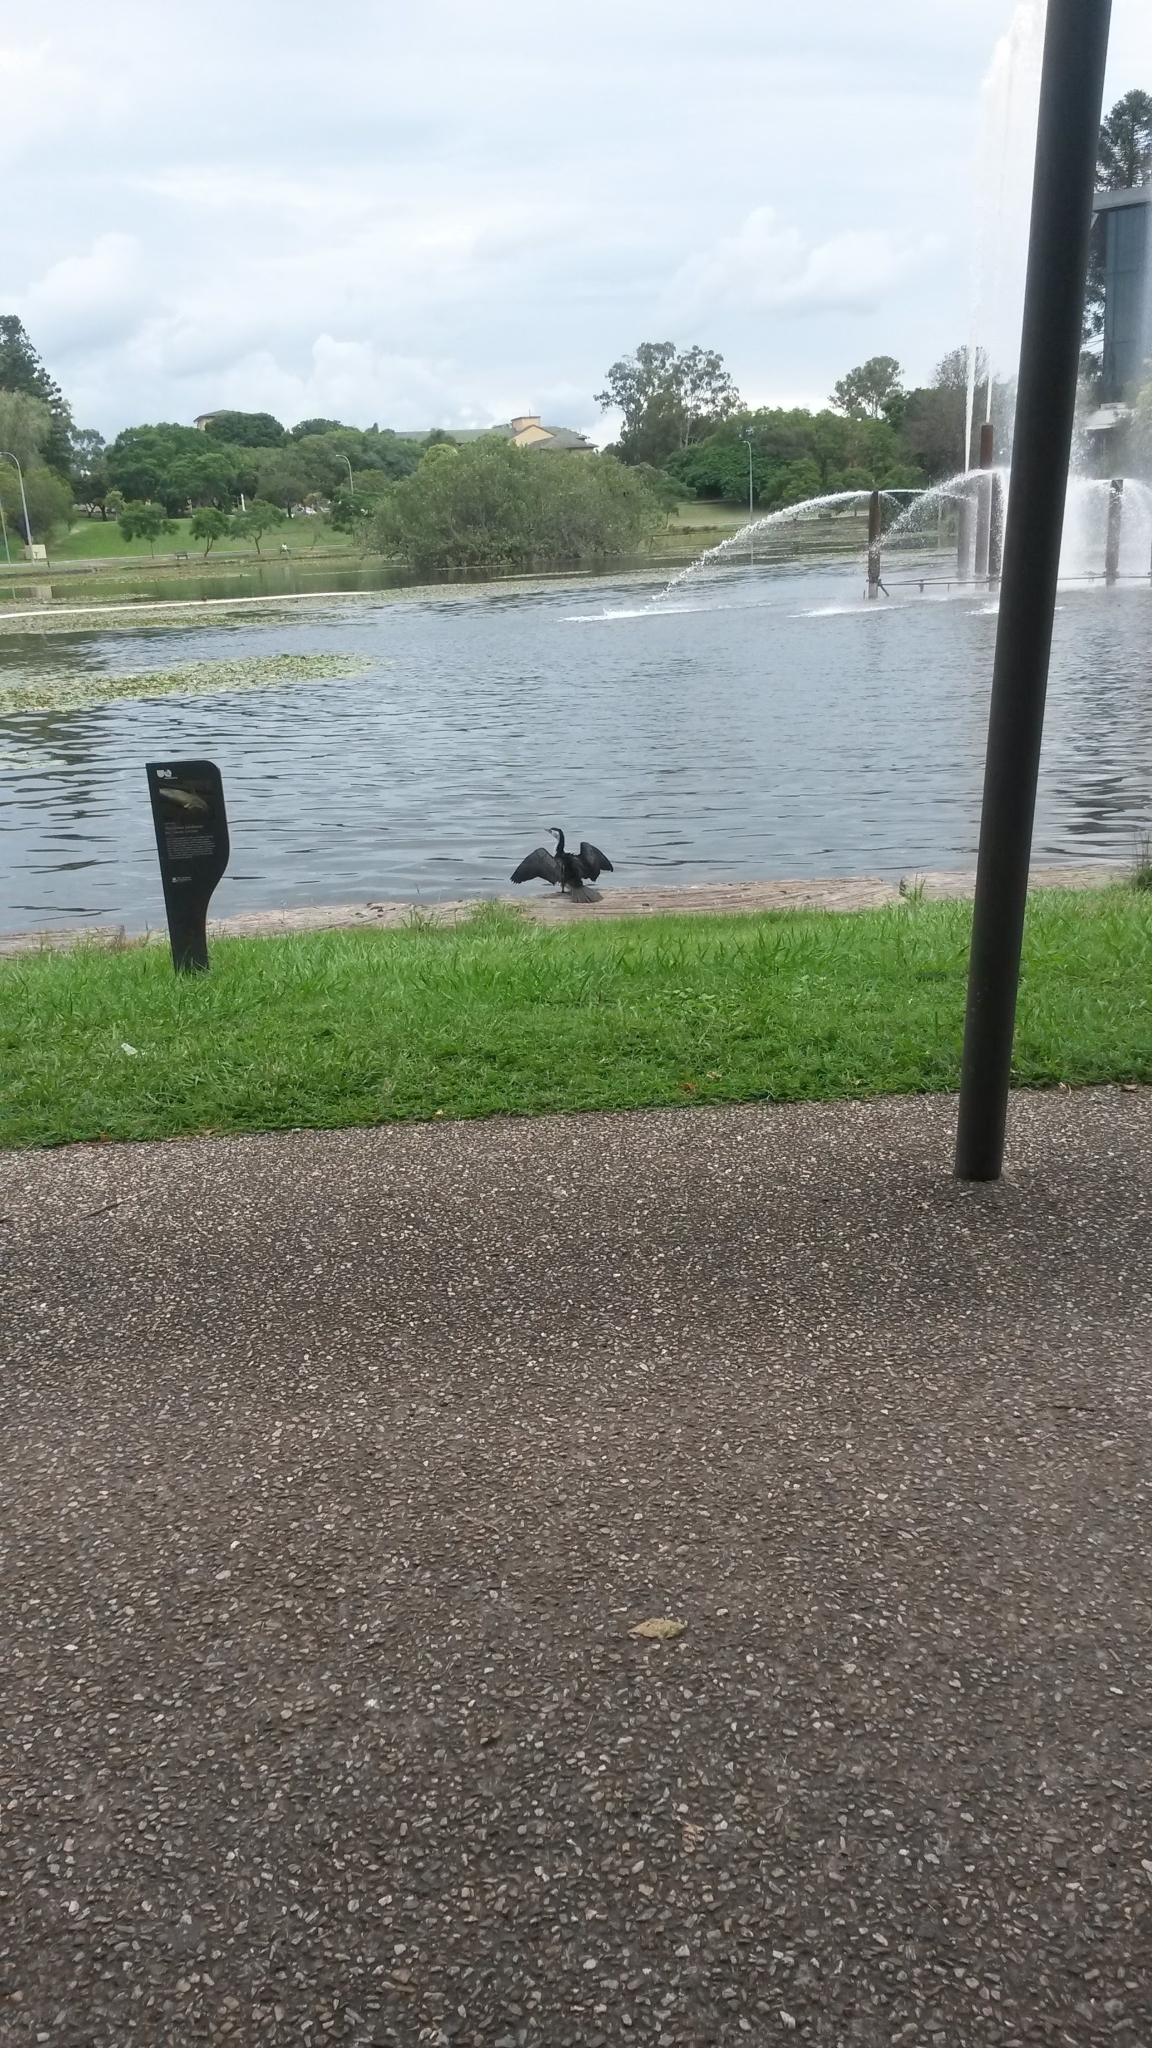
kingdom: Animalia
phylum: Chordata
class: Aves
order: Suliformes
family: Phalacrocoracidae
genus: Microcarbo
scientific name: Microcarbo melanoleucos
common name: Little pied cormorant
